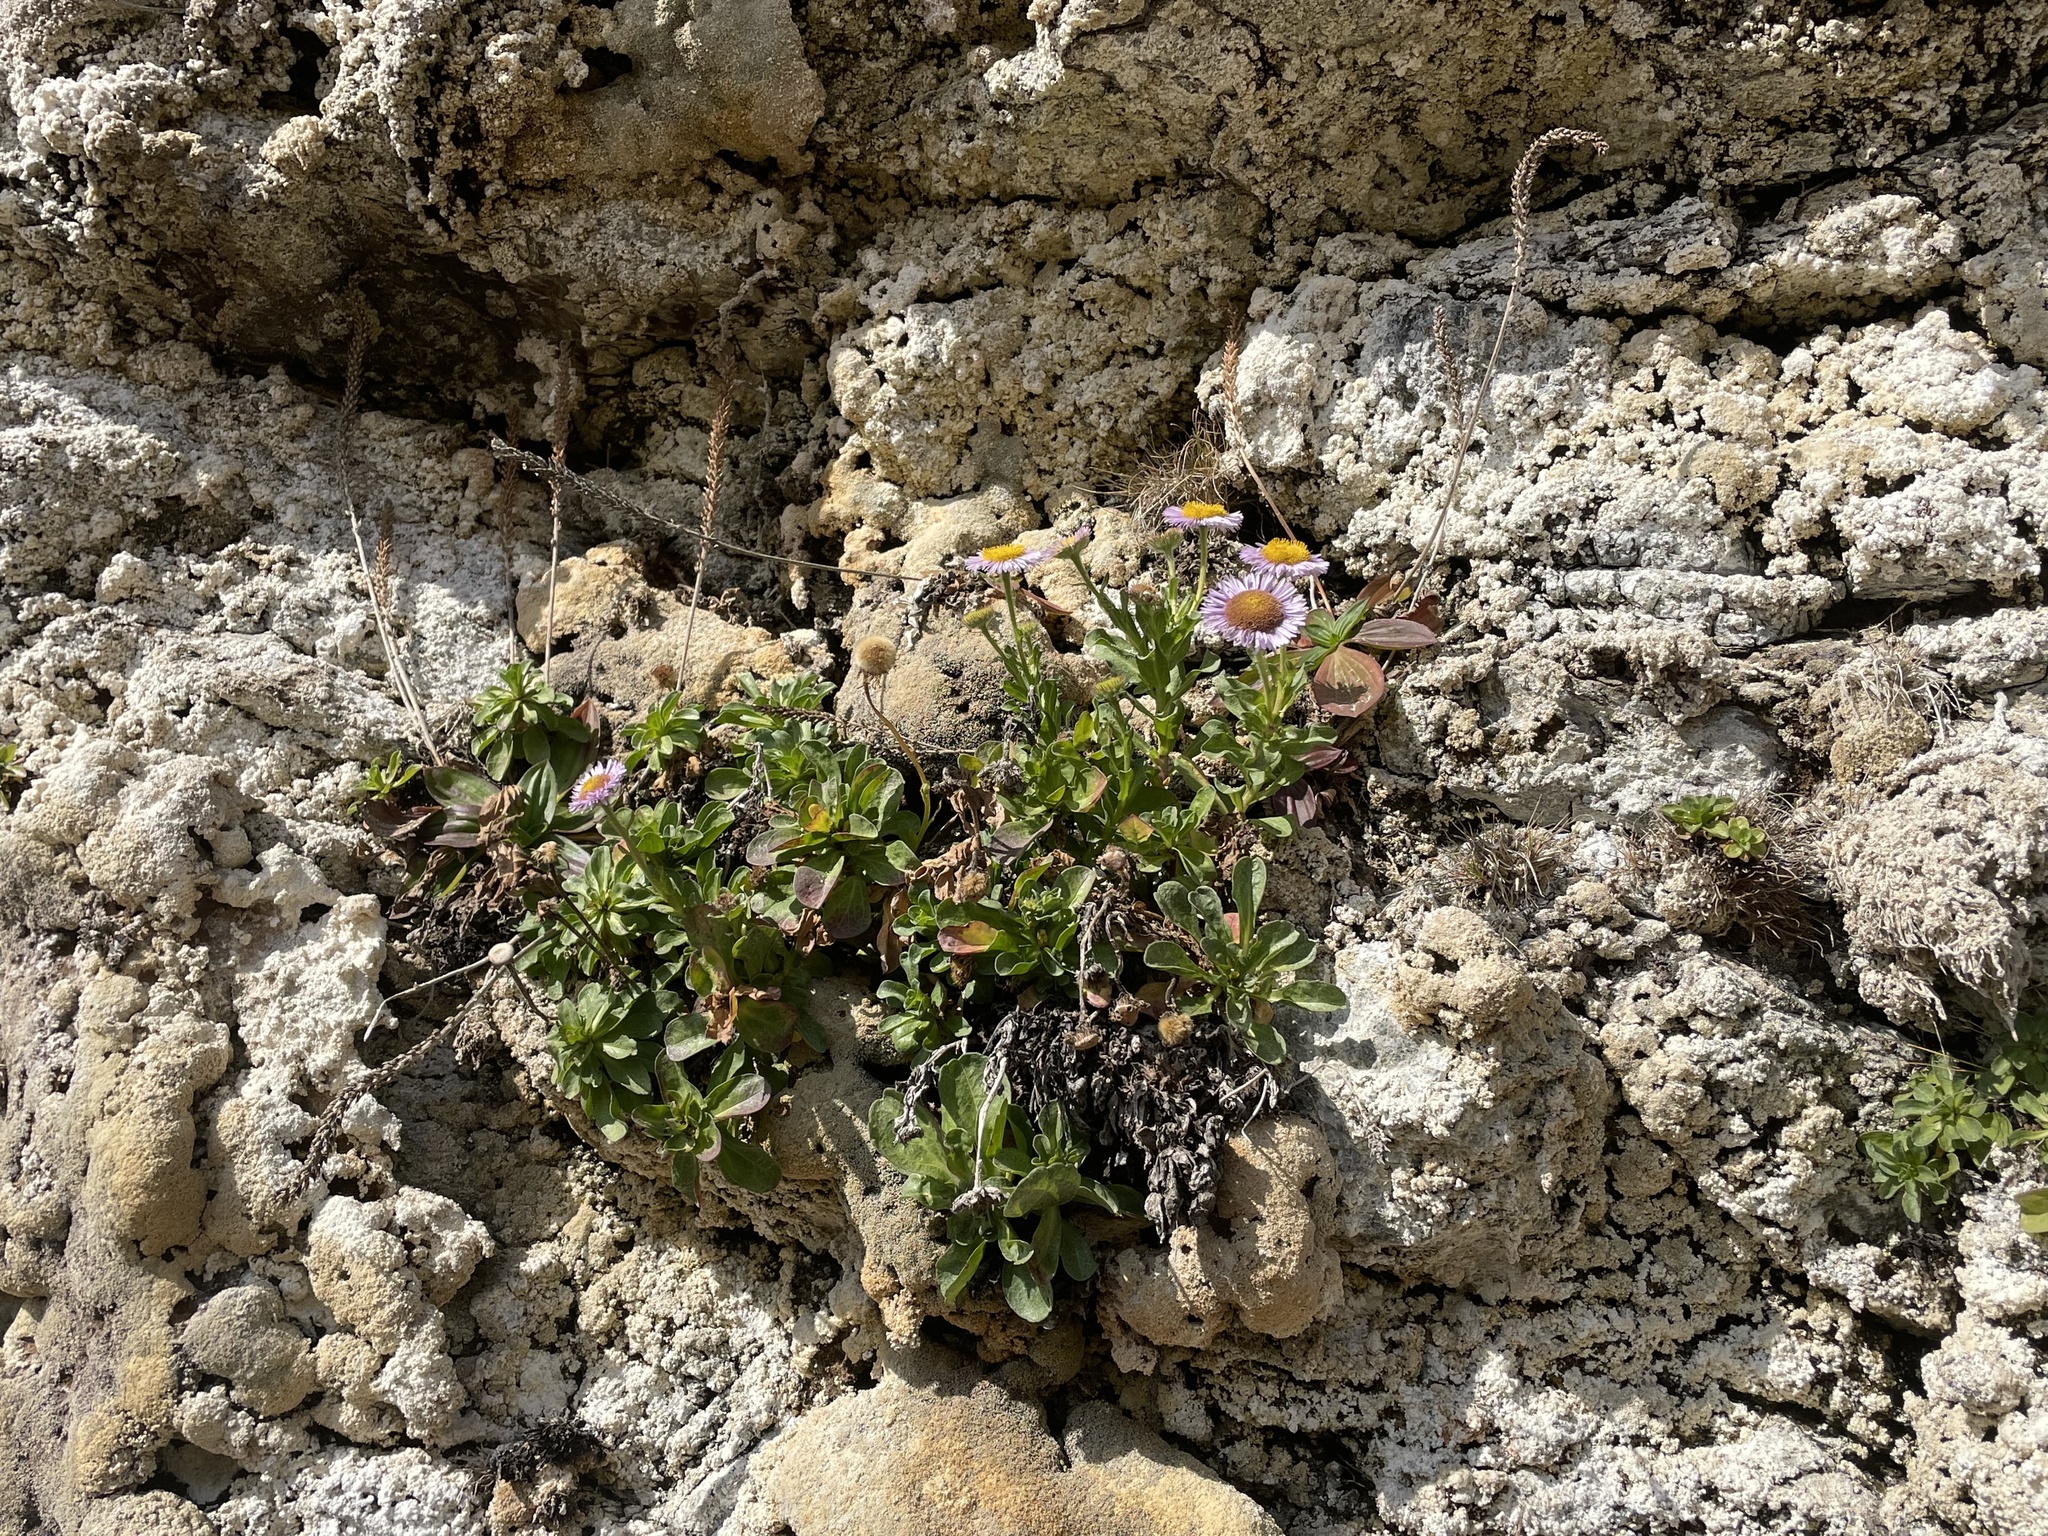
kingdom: Plantae
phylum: Tracheophyta
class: Magnoliopsida
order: Asterales
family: Asteraceae
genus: Erigeron
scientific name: Erigeron glaucus
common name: Seaside daisy
